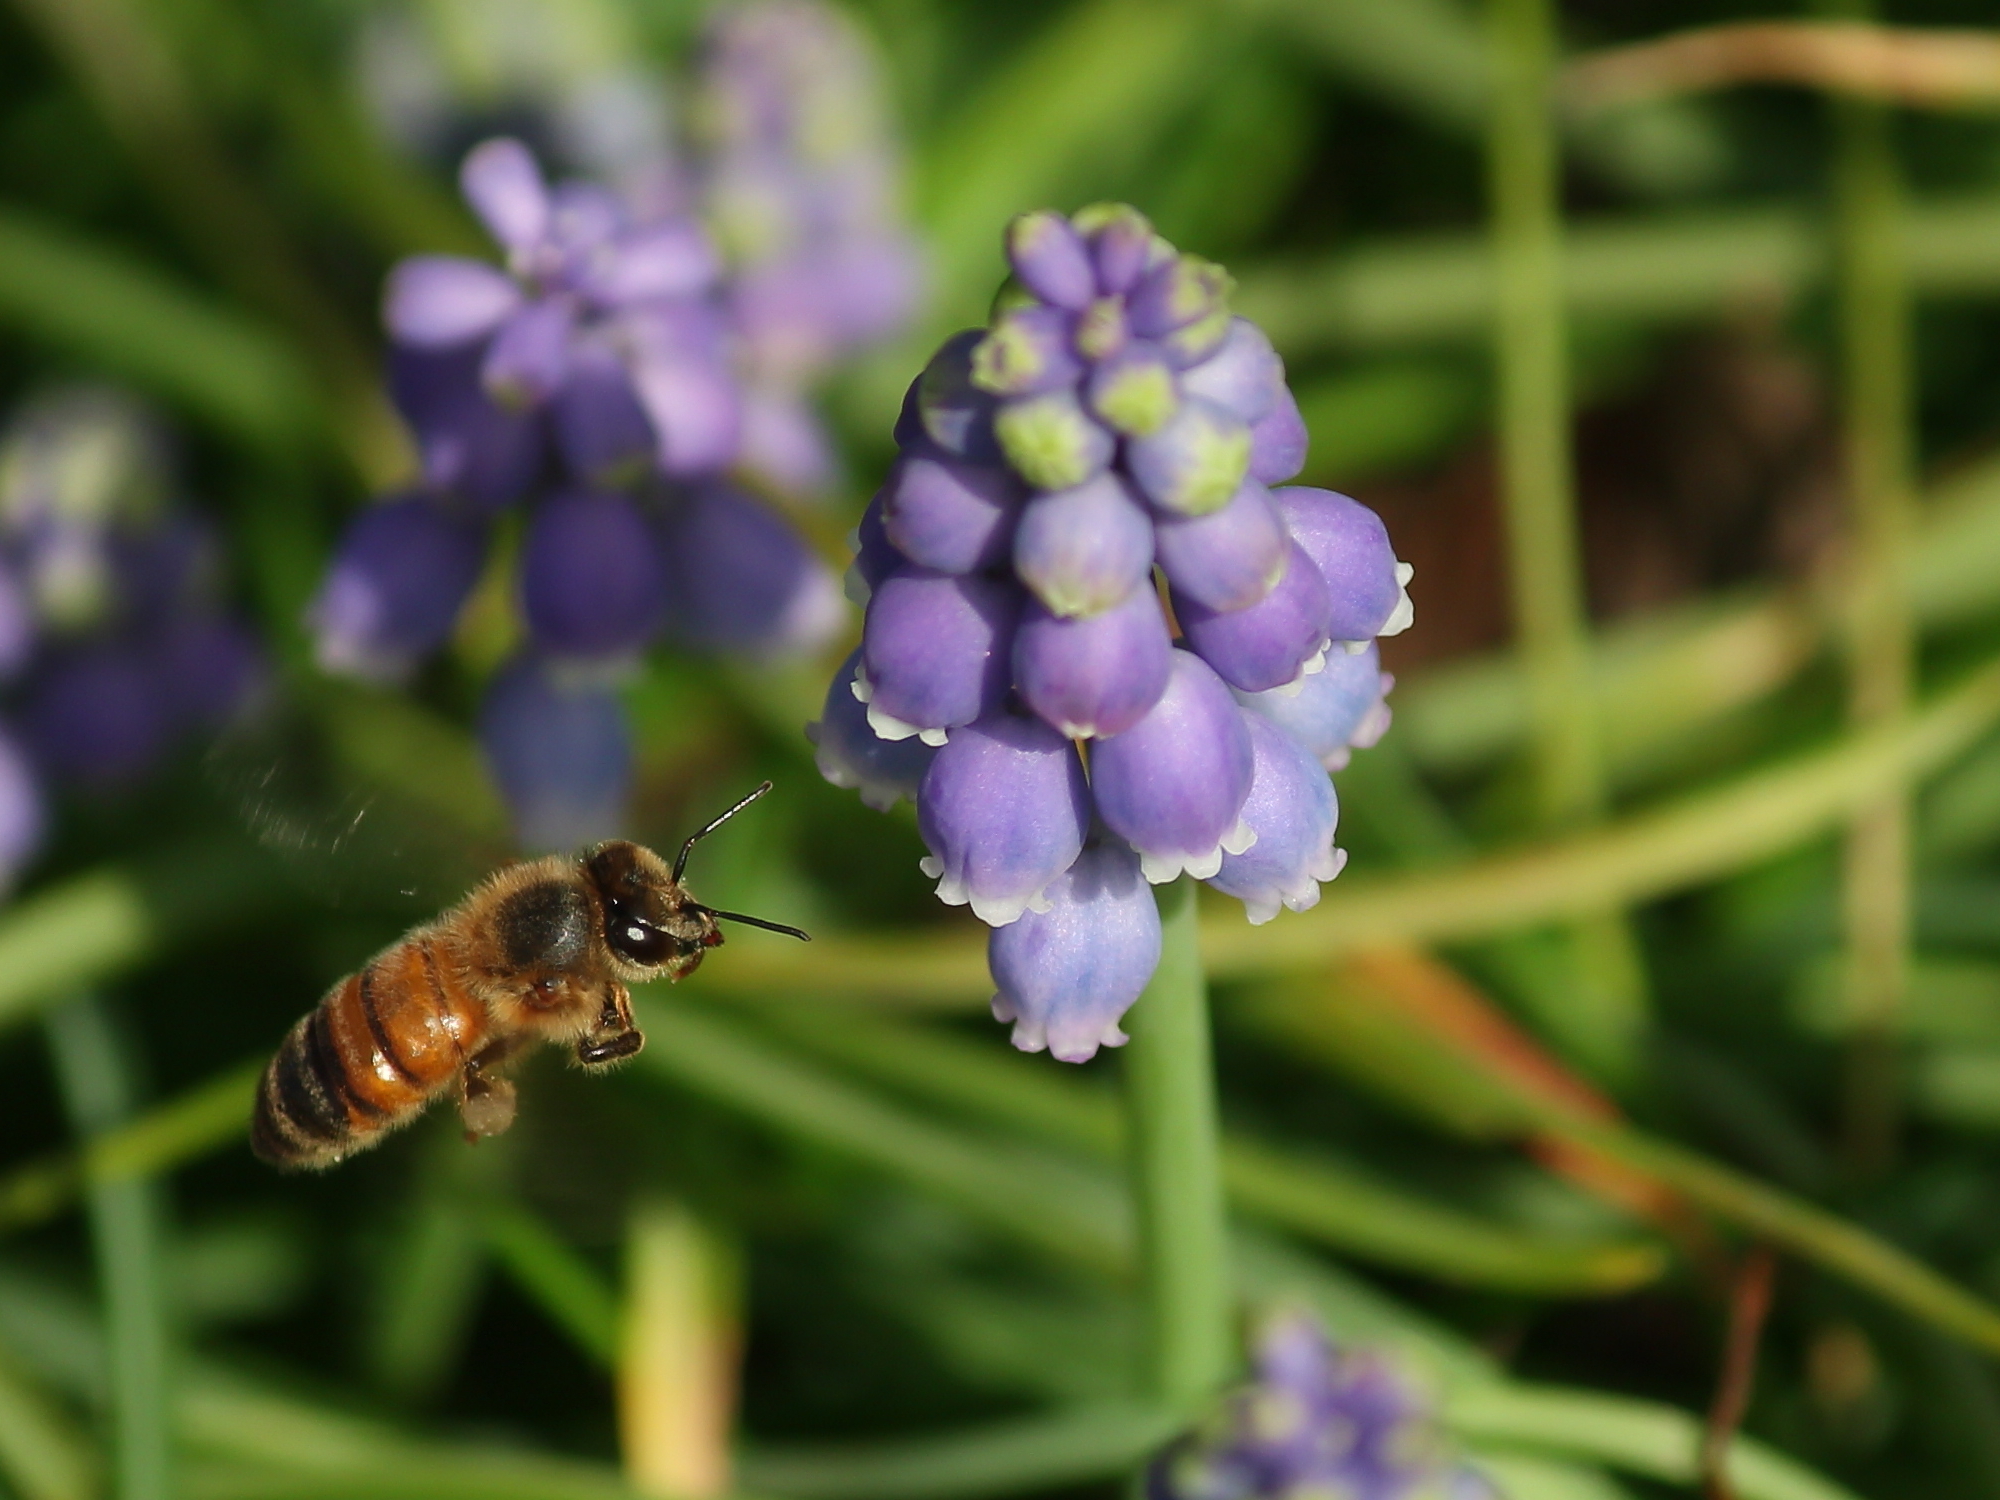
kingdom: Animalia
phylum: Arthropoda
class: Insecta
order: Hymenoptera
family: Apidae
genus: Apis
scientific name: Apis mellifera
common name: Honey bee
